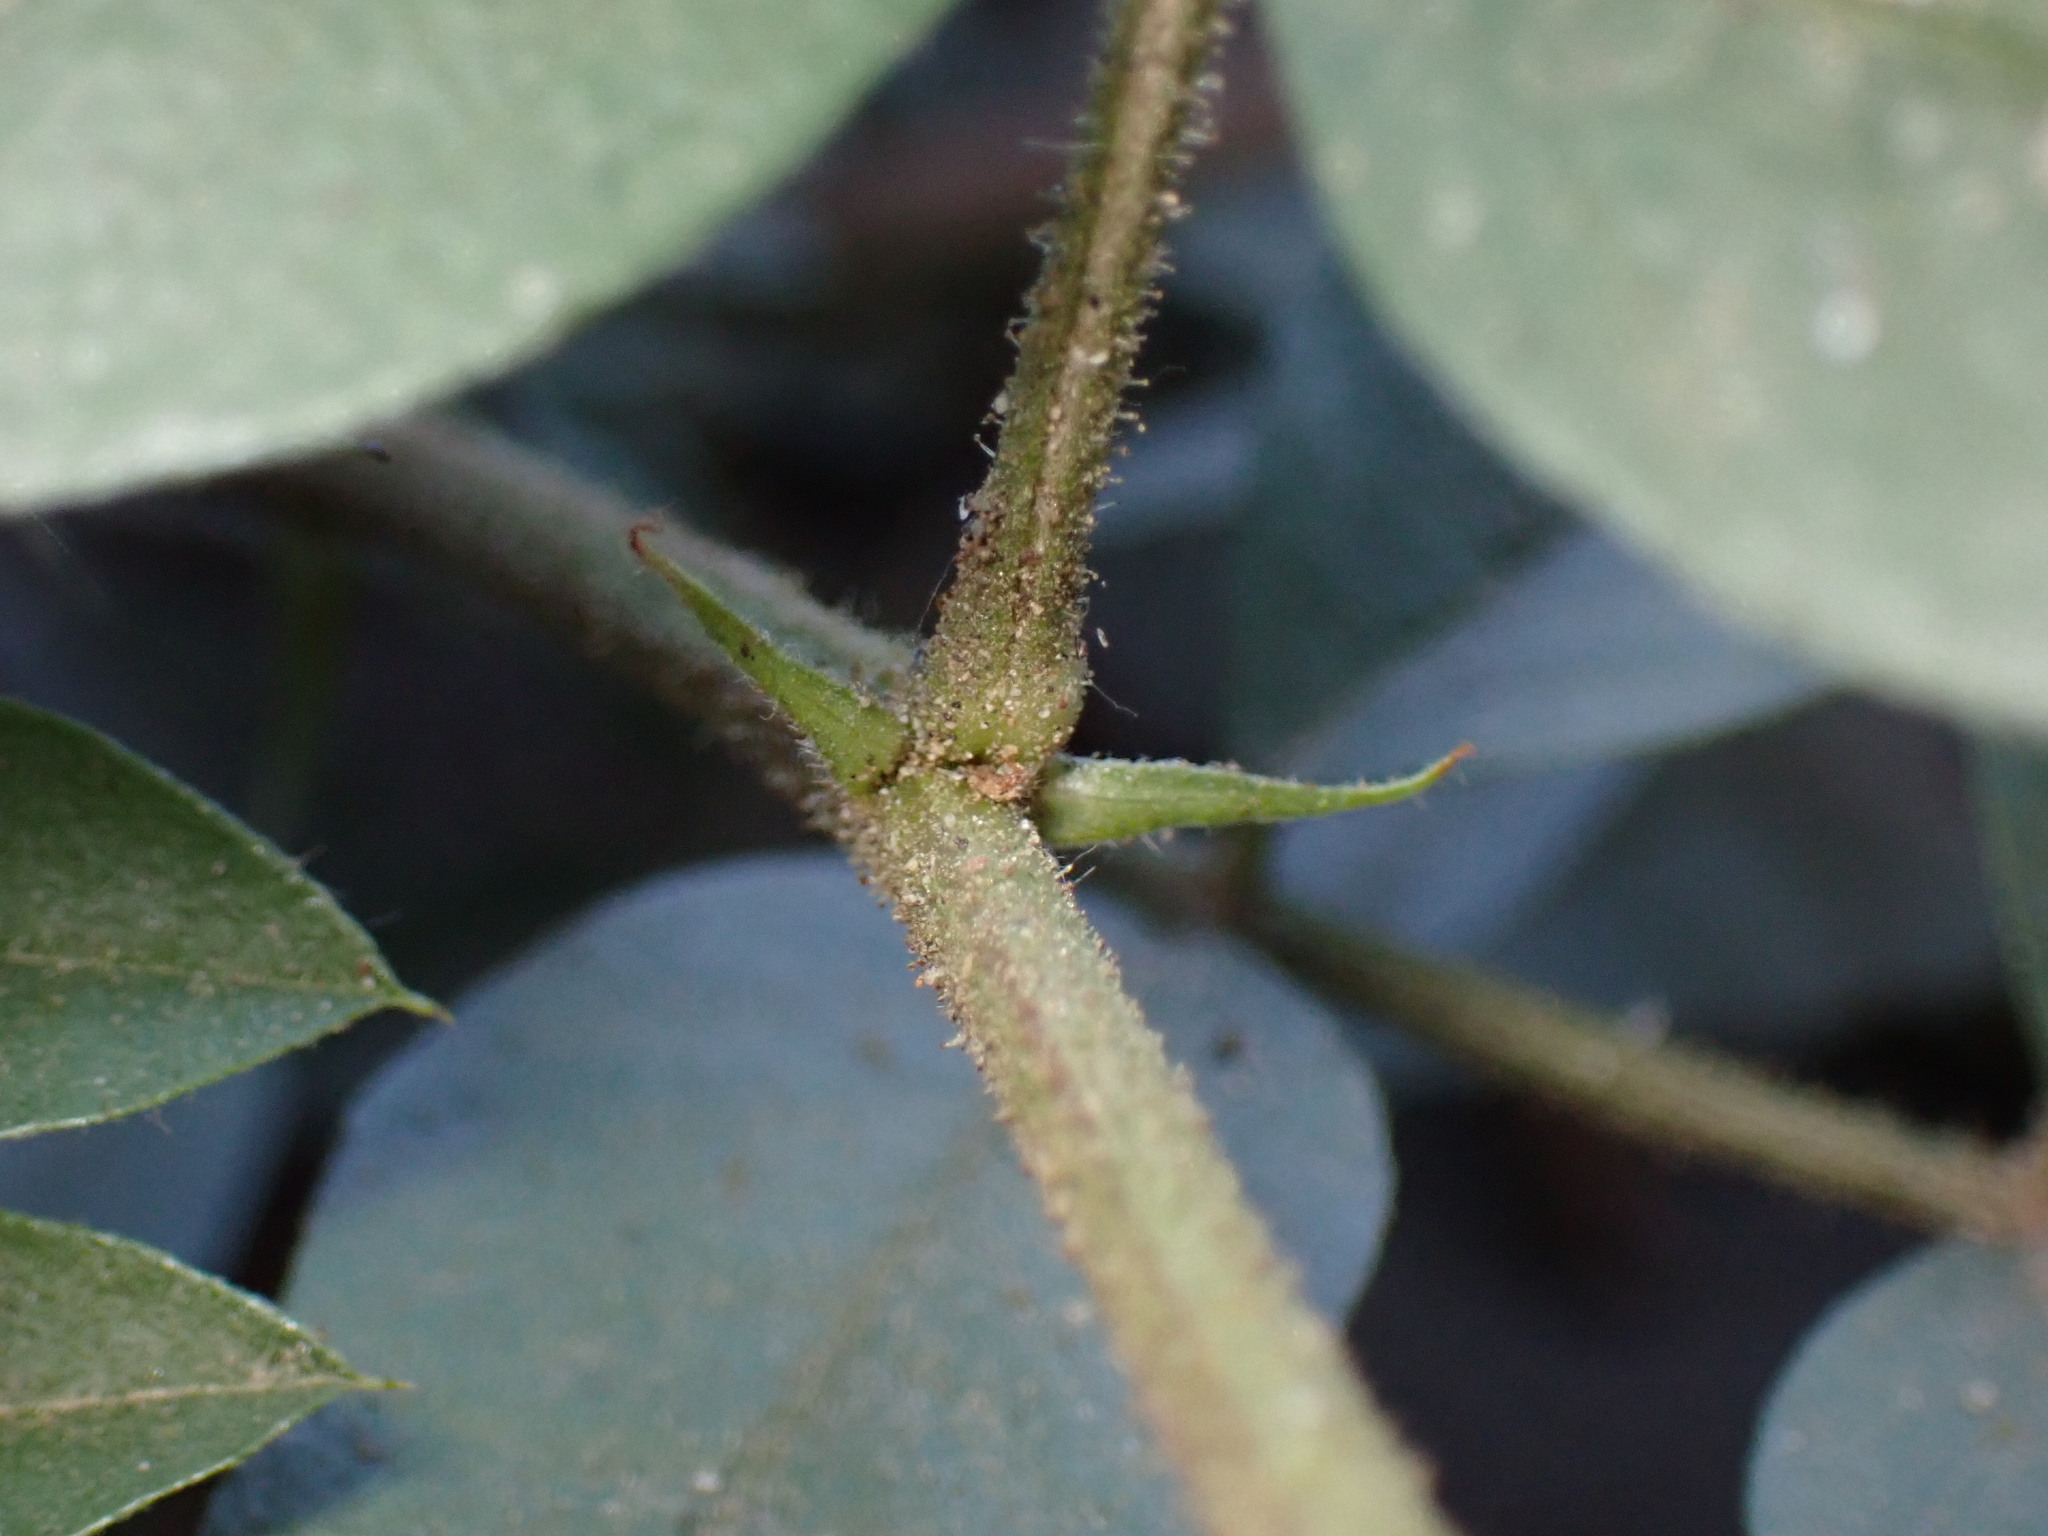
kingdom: Plantae
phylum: Tracheophyta
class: Magnoliopsida
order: Fabales
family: Fabaceae
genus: Glycyrrhiza
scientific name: Glycyrrhiza lepidota
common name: American liquorice
